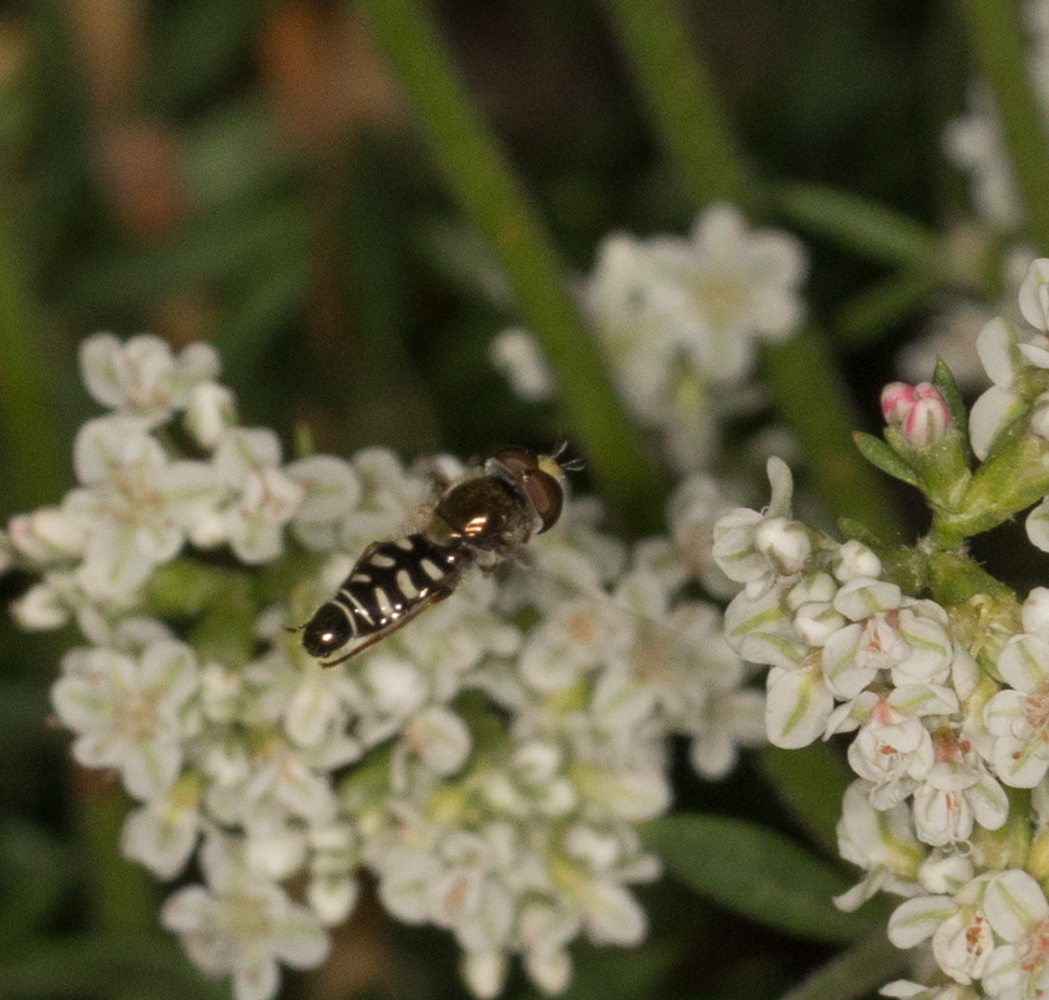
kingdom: Animalia
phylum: Arthropoda
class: Insecta
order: Diptera
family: Syrphidae
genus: Eupeodes
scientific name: Eupeodes volucris
